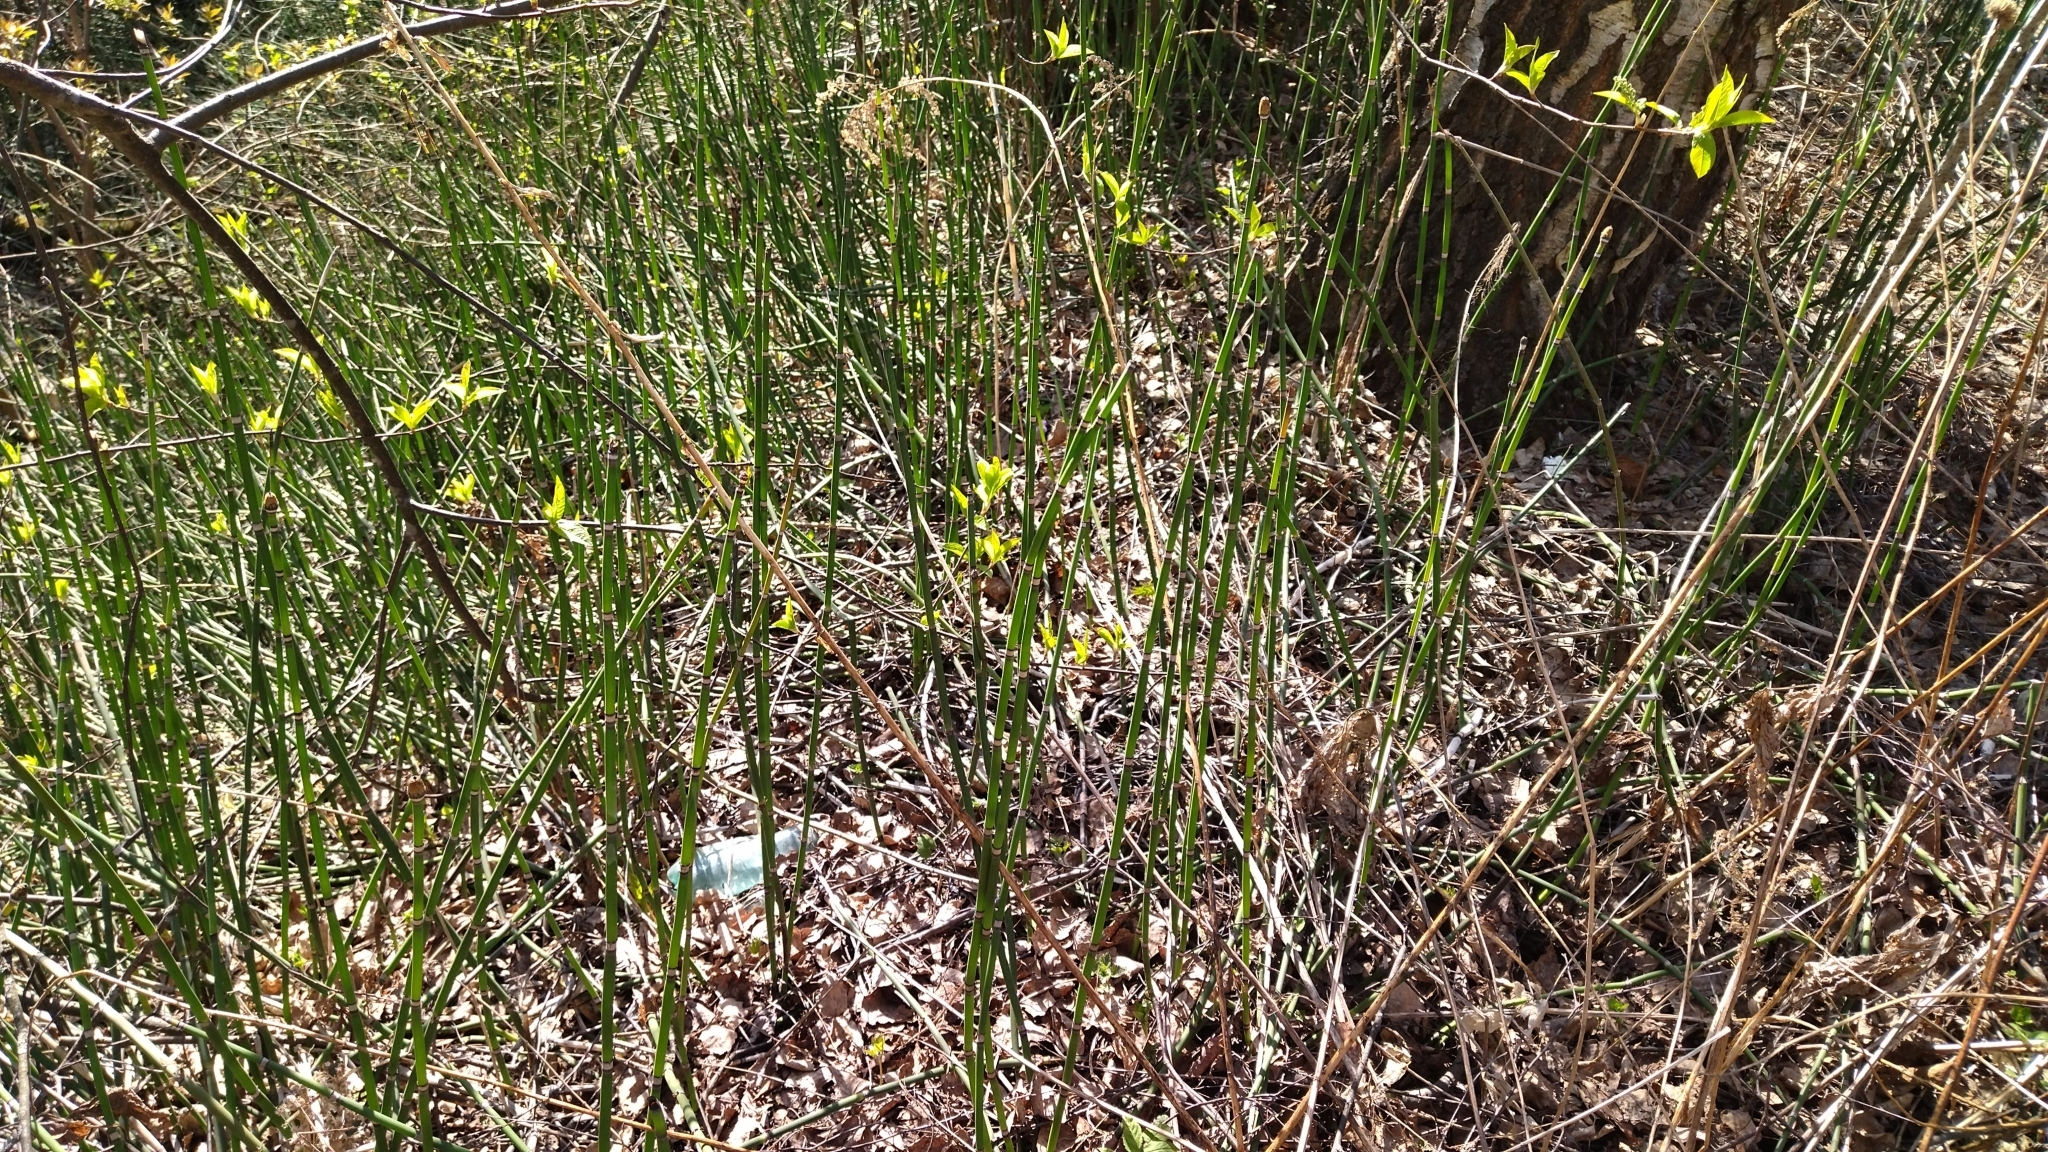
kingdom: Plantae
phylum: Tracheophyta
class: Polypodiopsida
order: Equisetales
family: Equisetaceae
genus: Equisetum
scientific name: Equisetum hyemale
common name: Rough horsetail
